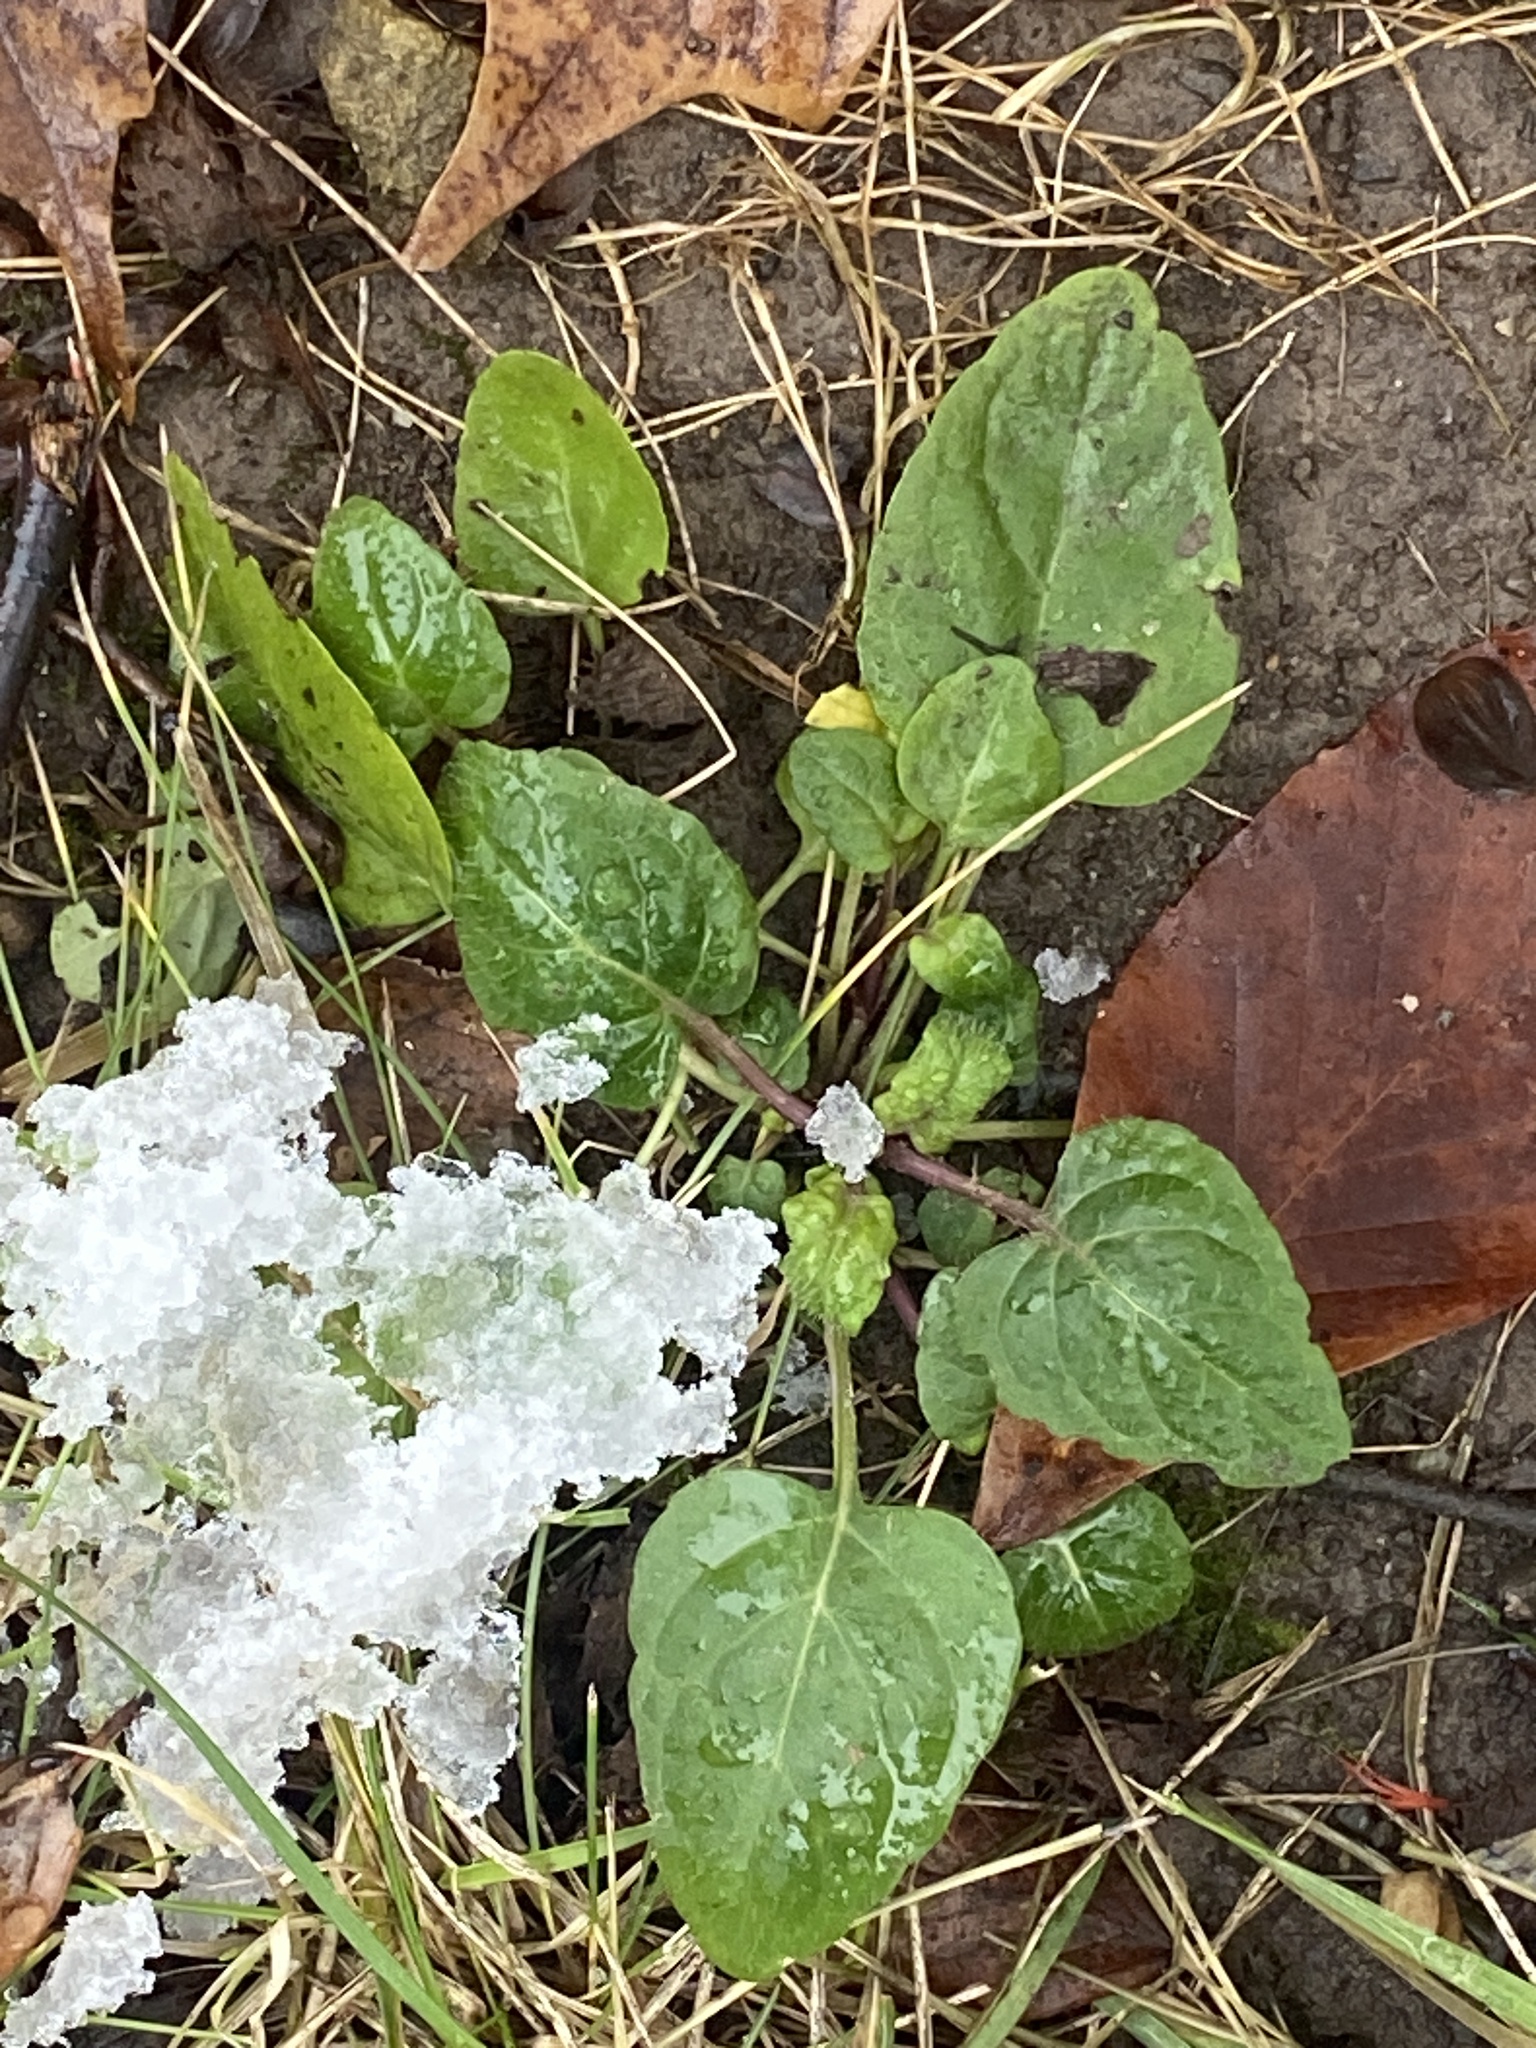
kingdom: Plantae
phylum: Tracheophyta
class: Magnoliopsida
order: Lamiales
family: Lamiaceae
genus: Prunella
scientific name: Prunella vulgaris
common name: Heal-all
